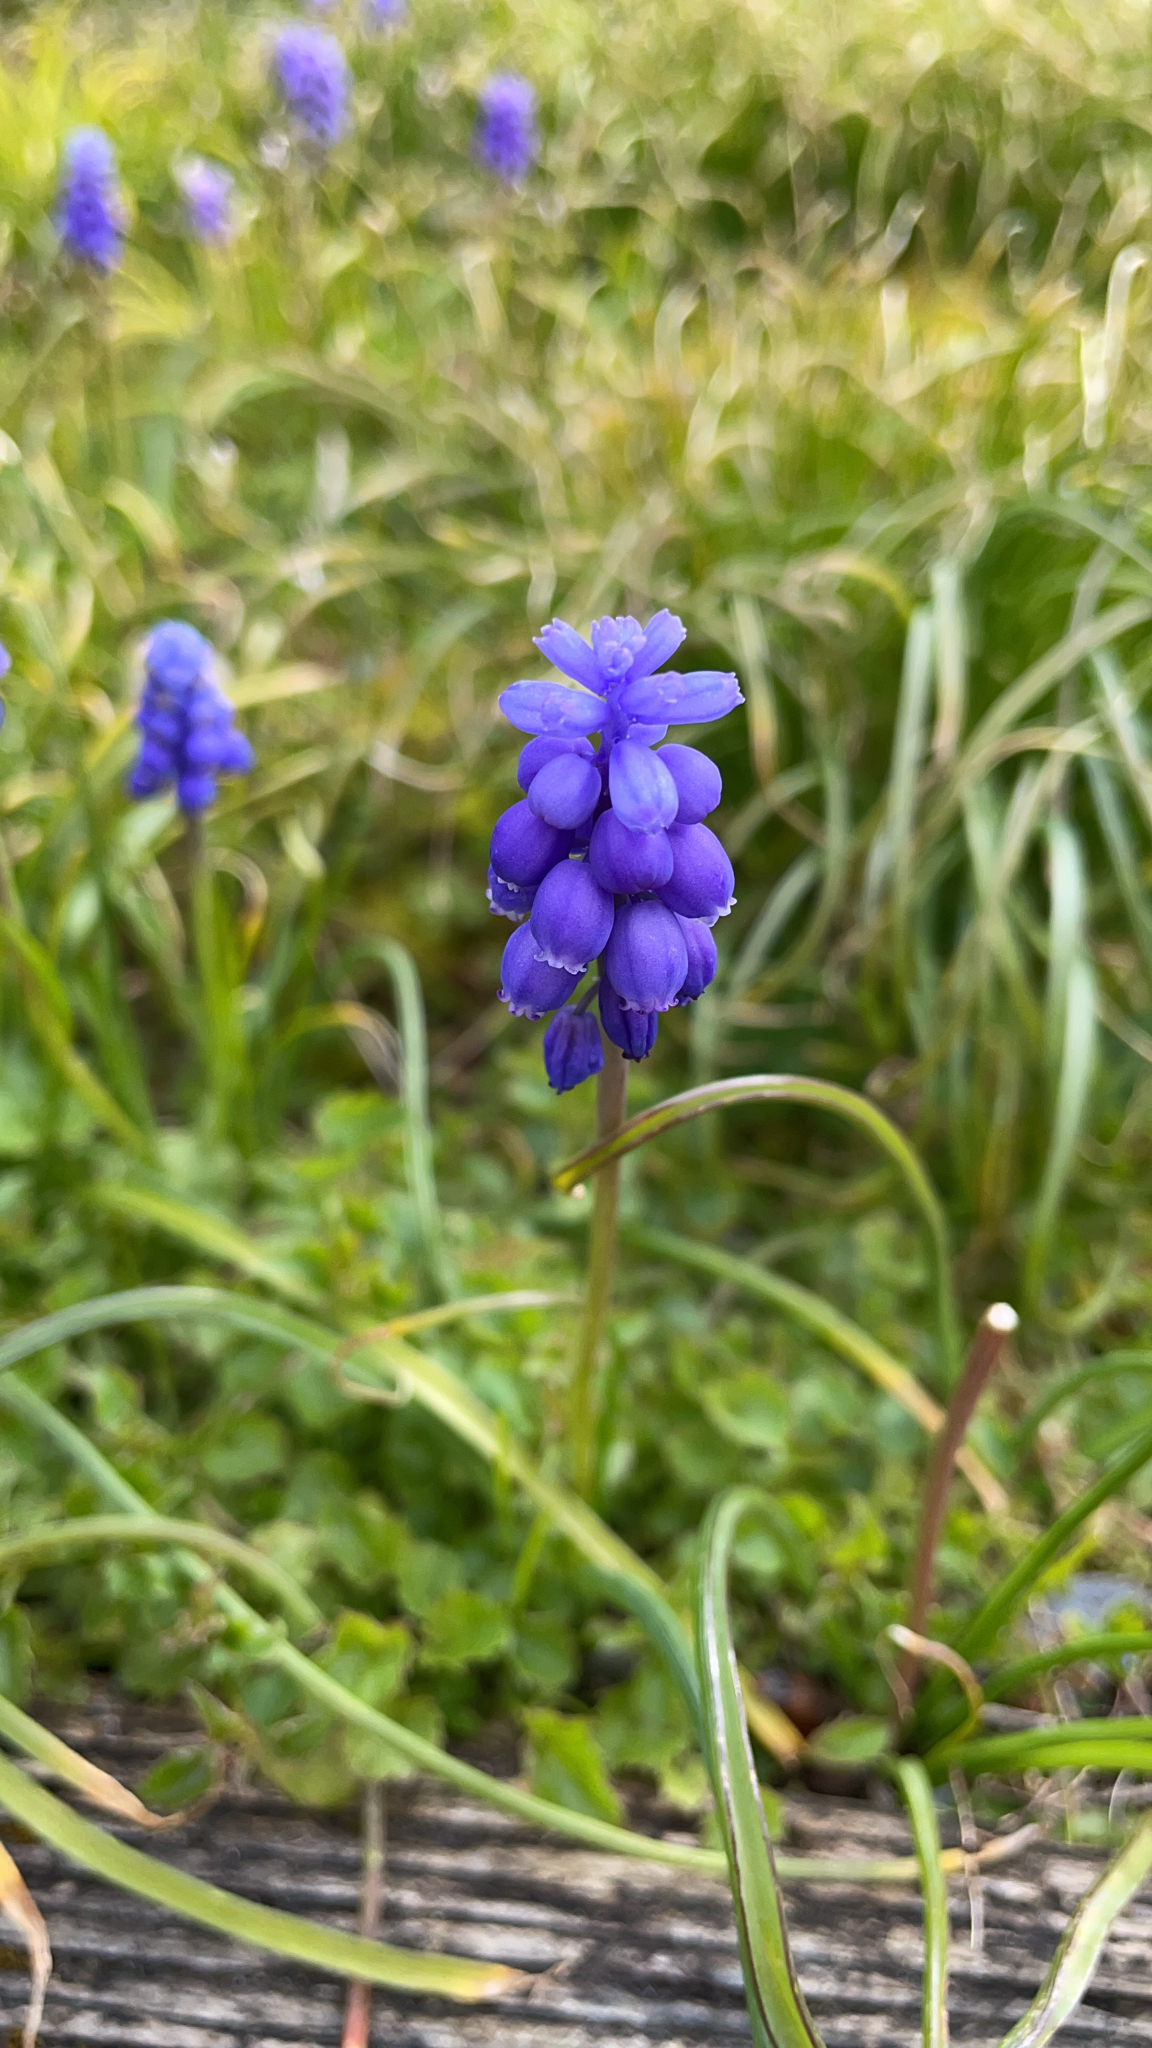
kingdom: Plantae
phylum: Tracheophyta
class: Liliopsida
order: Asparagales
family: Asparagaceae
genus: Muscari
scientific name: Muscari neglectum
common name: Grape-hyacinth
